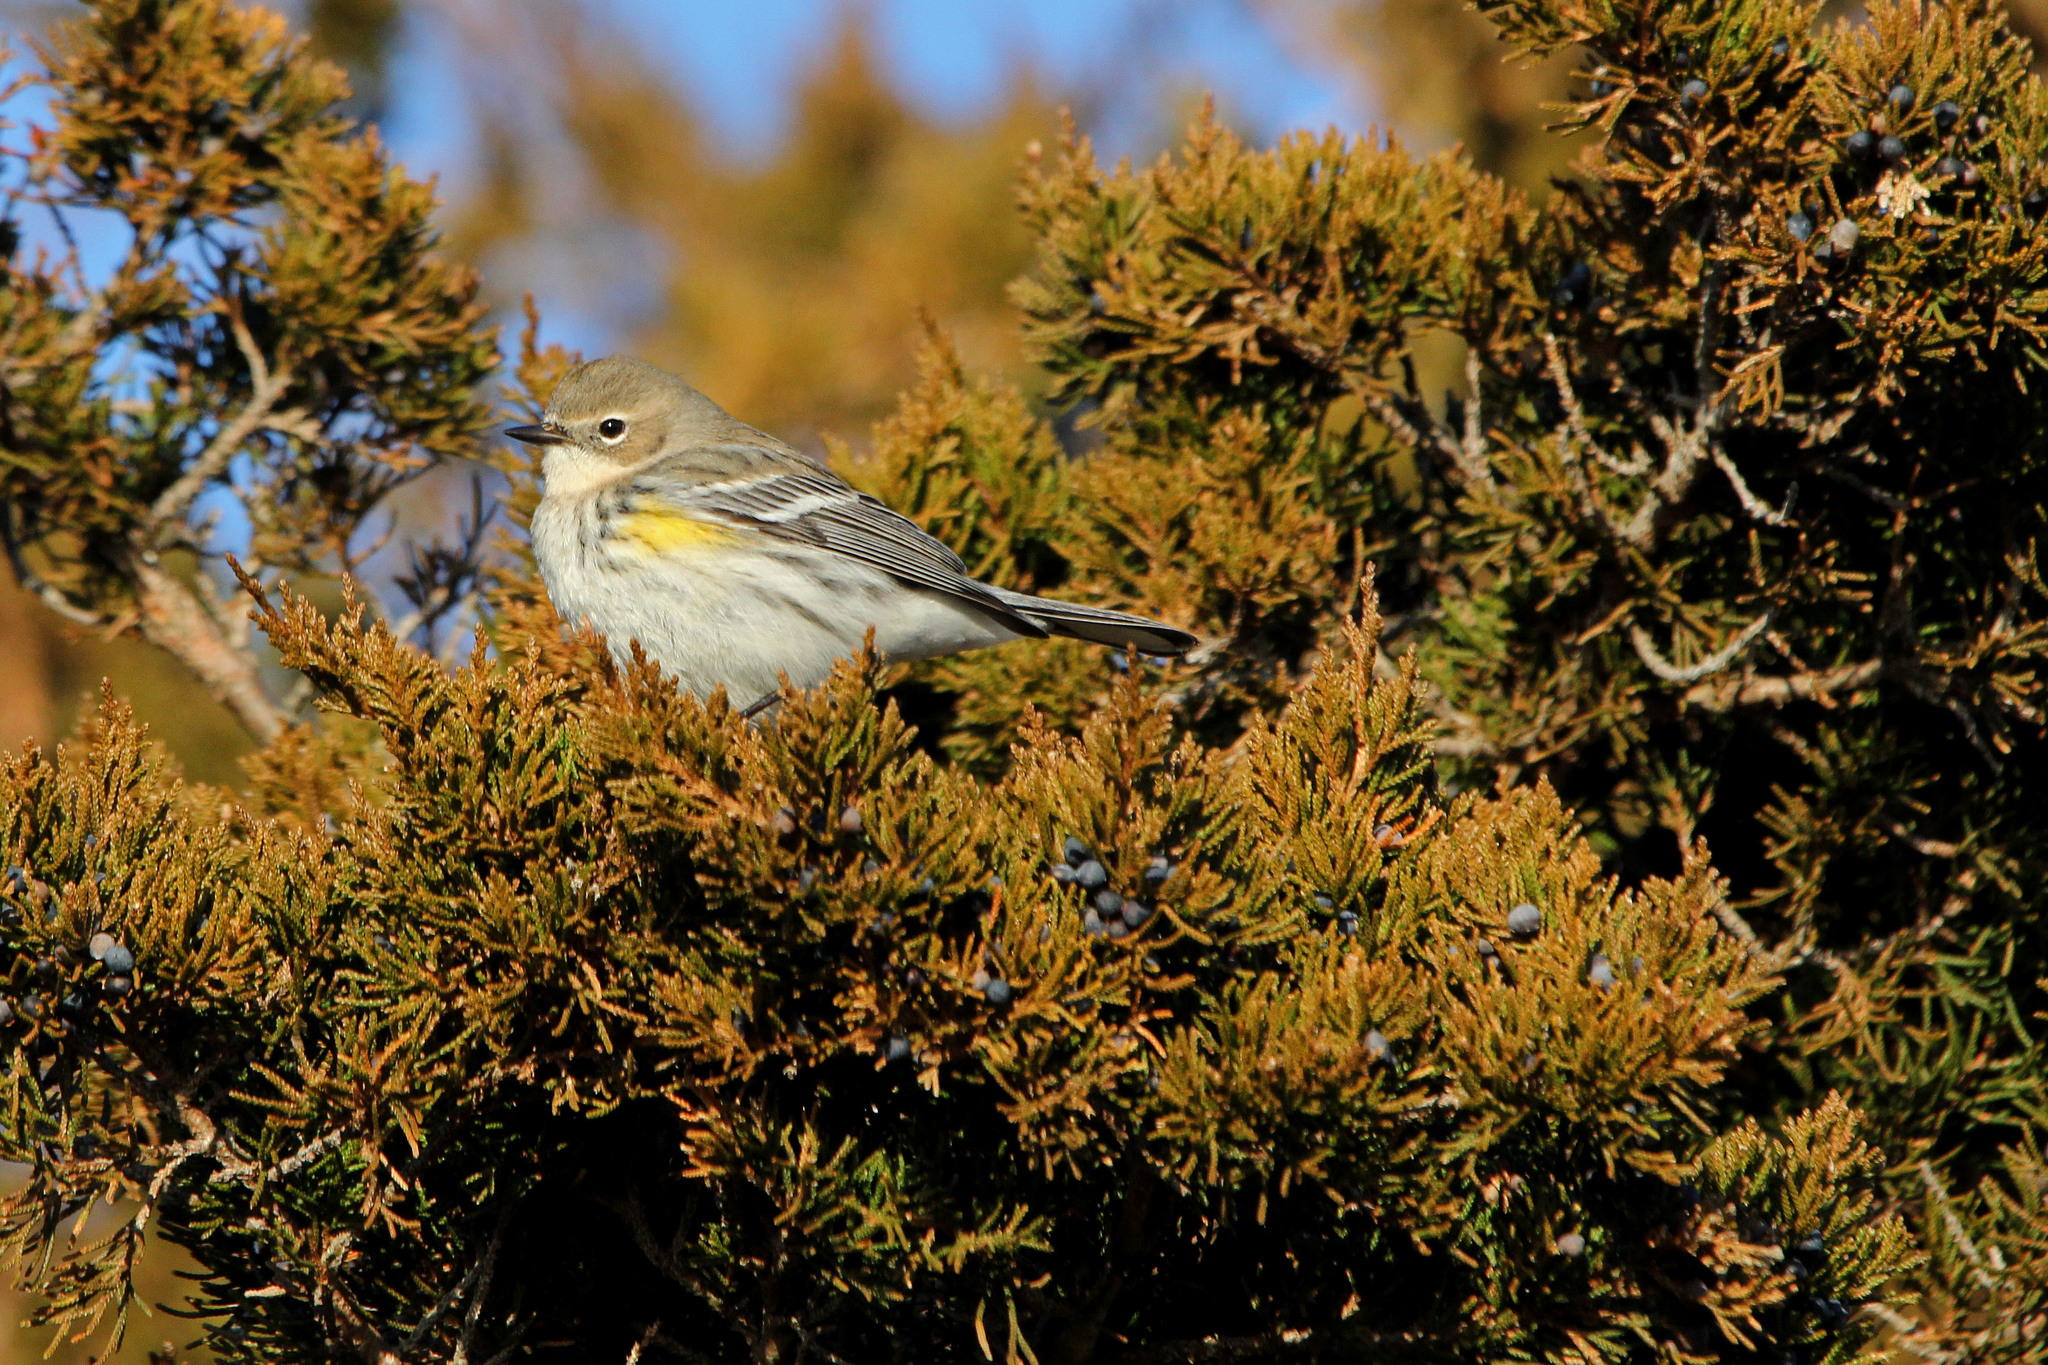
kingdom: Animalia
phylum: Chordata
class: Aves
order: Passeriformes
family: Parulidae
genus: Setophaga
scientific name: Setophaga coronata
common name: Myrtle warbler
